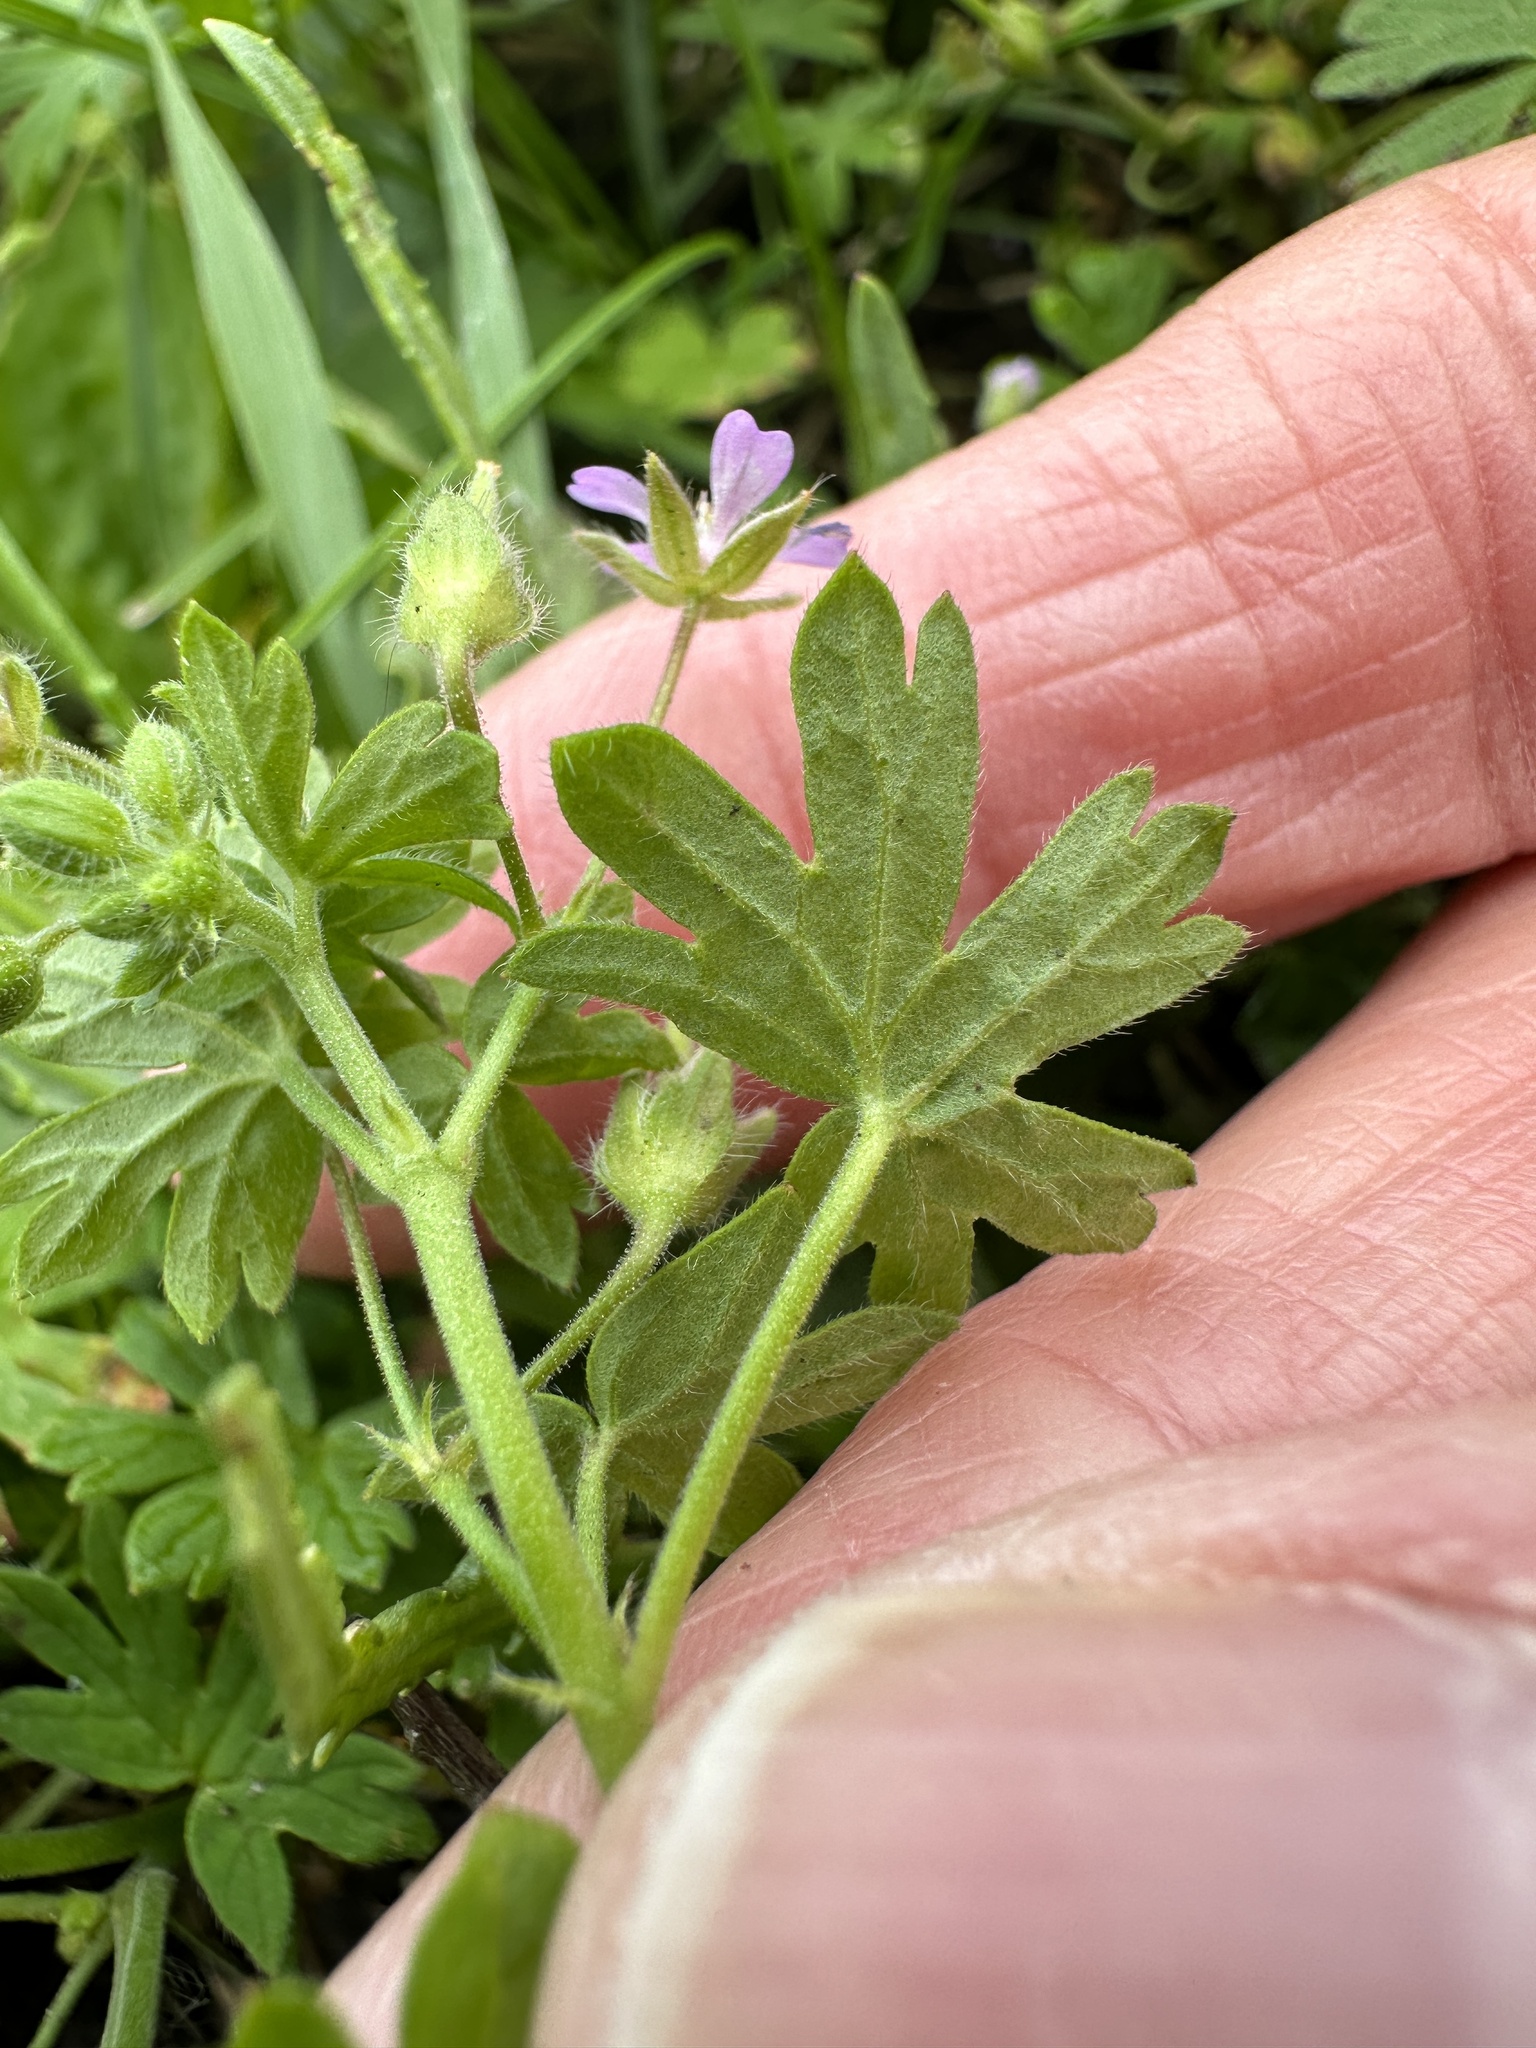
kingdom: Plantae
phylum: Tracheophyta
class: Magnoliopsida
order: Geraniales
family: Geraniaceae
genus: Geranium
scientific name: Geranium pusillum
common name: Small geranium
